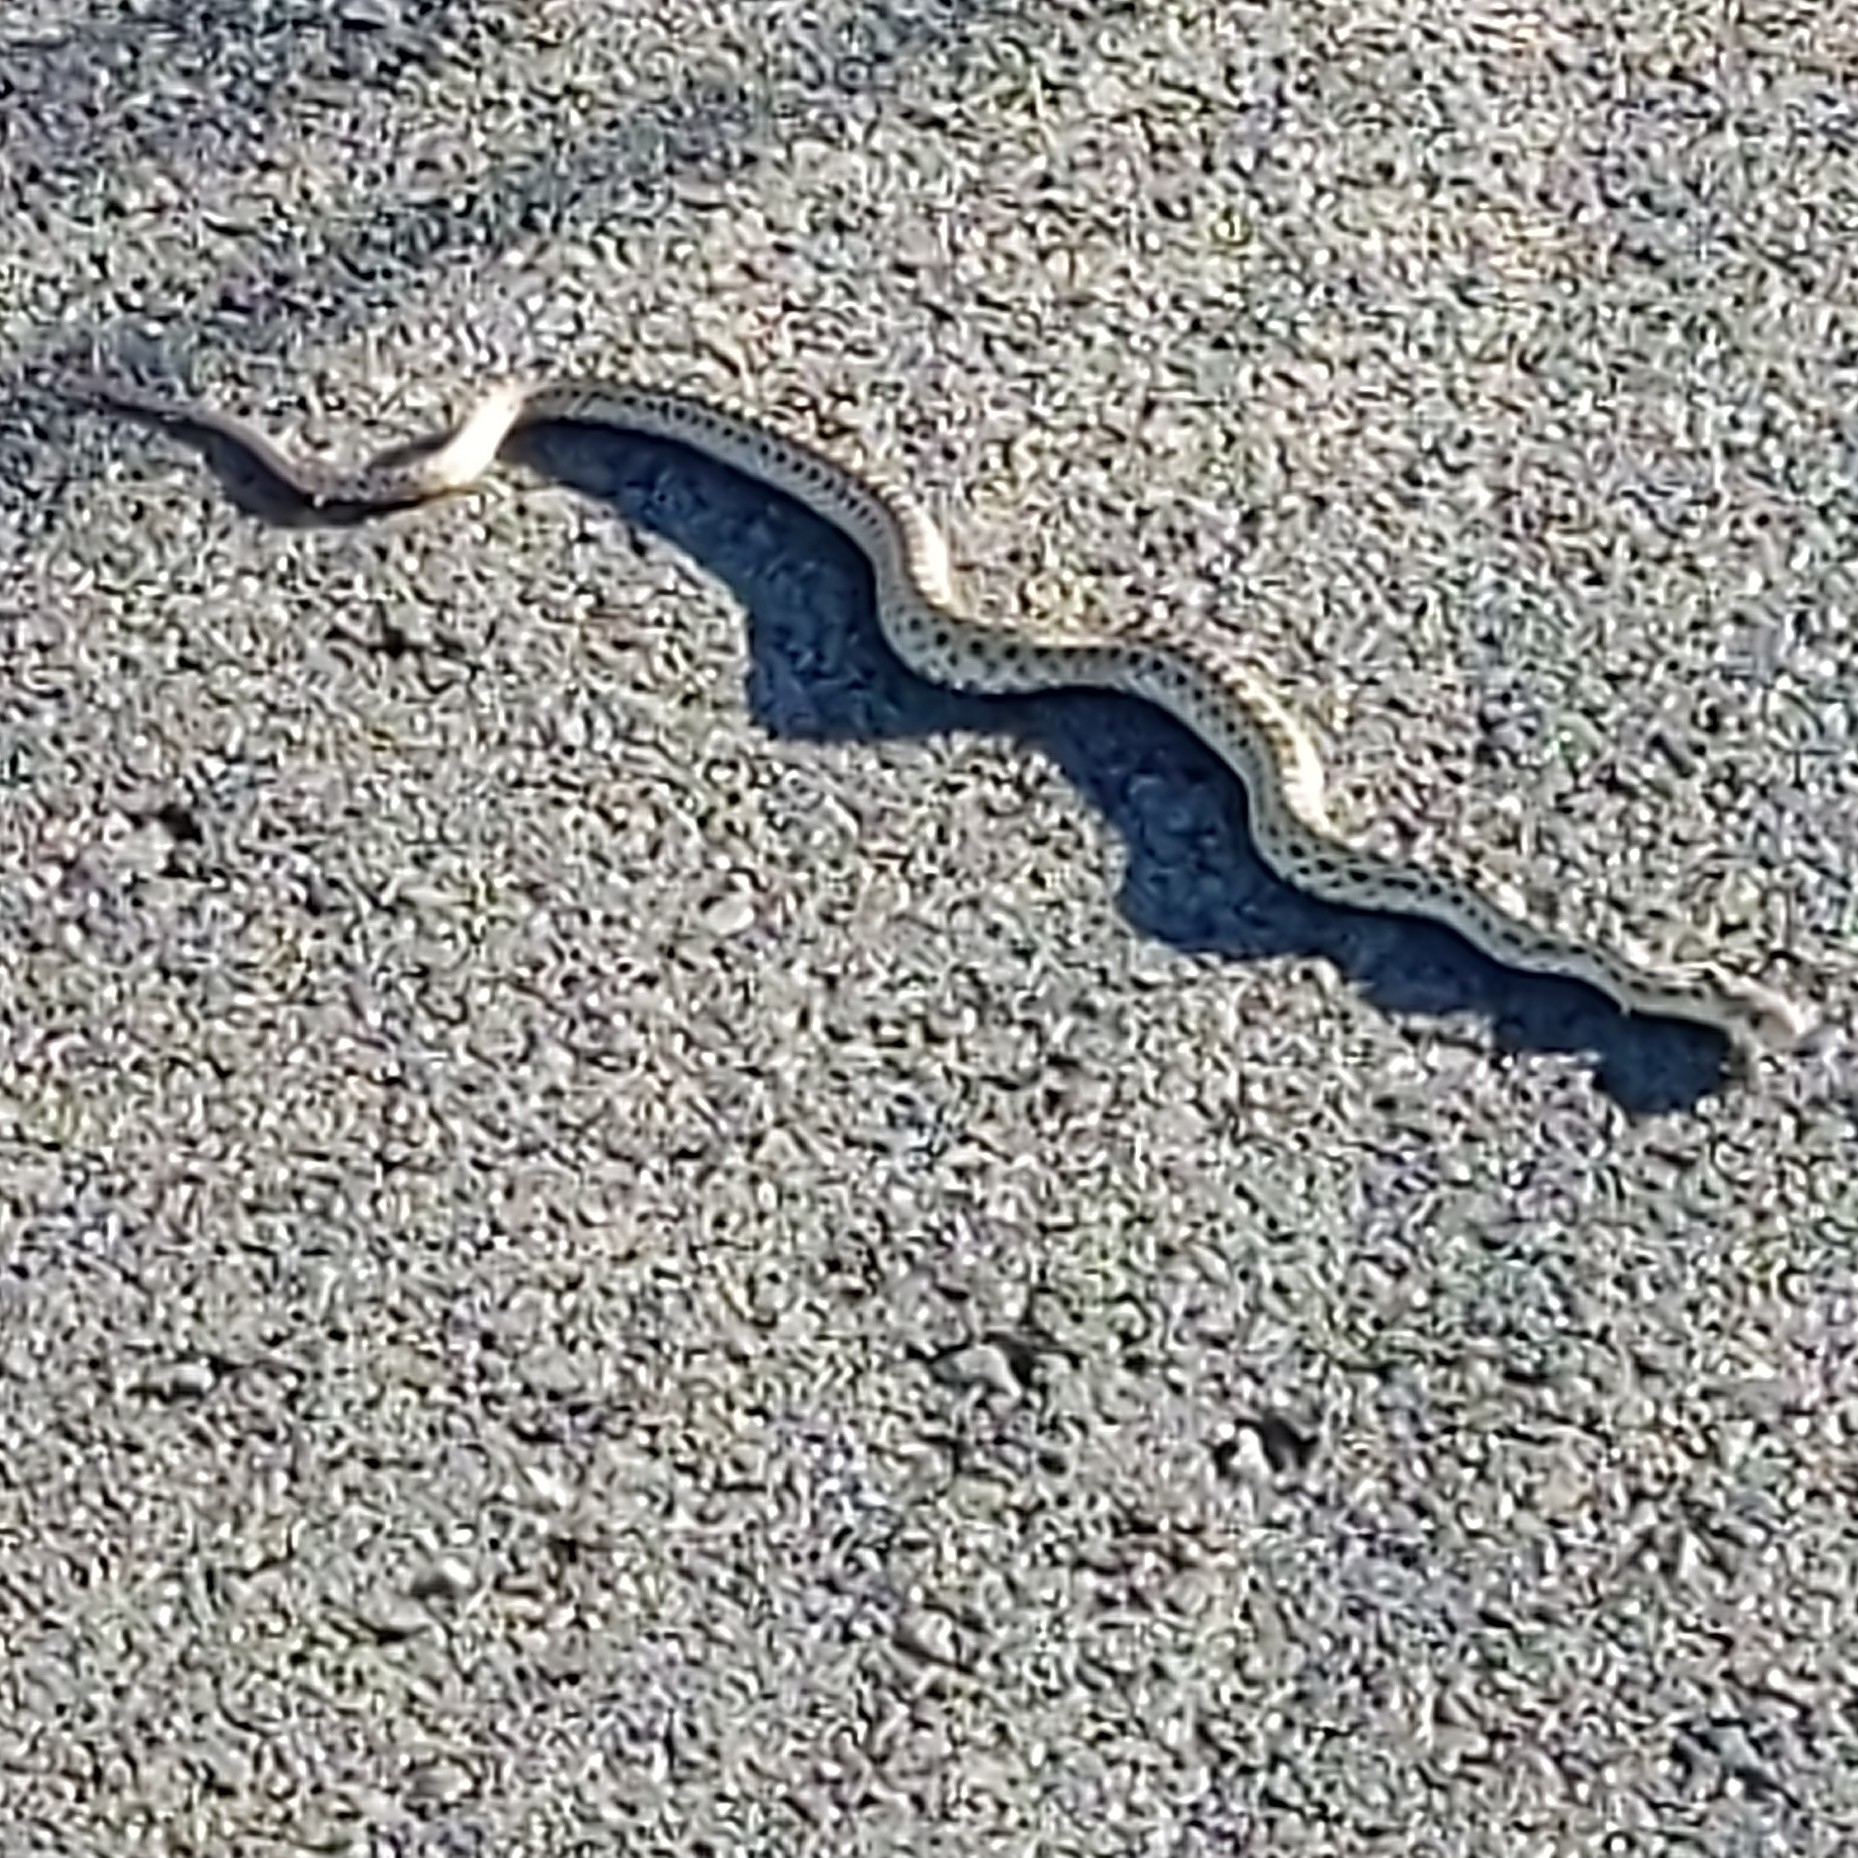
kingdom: Animalia
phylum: Chordata
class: Squamata
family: Colubridae
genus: Pituophis
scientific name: Pituophis catenifer
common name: Gopher snake
